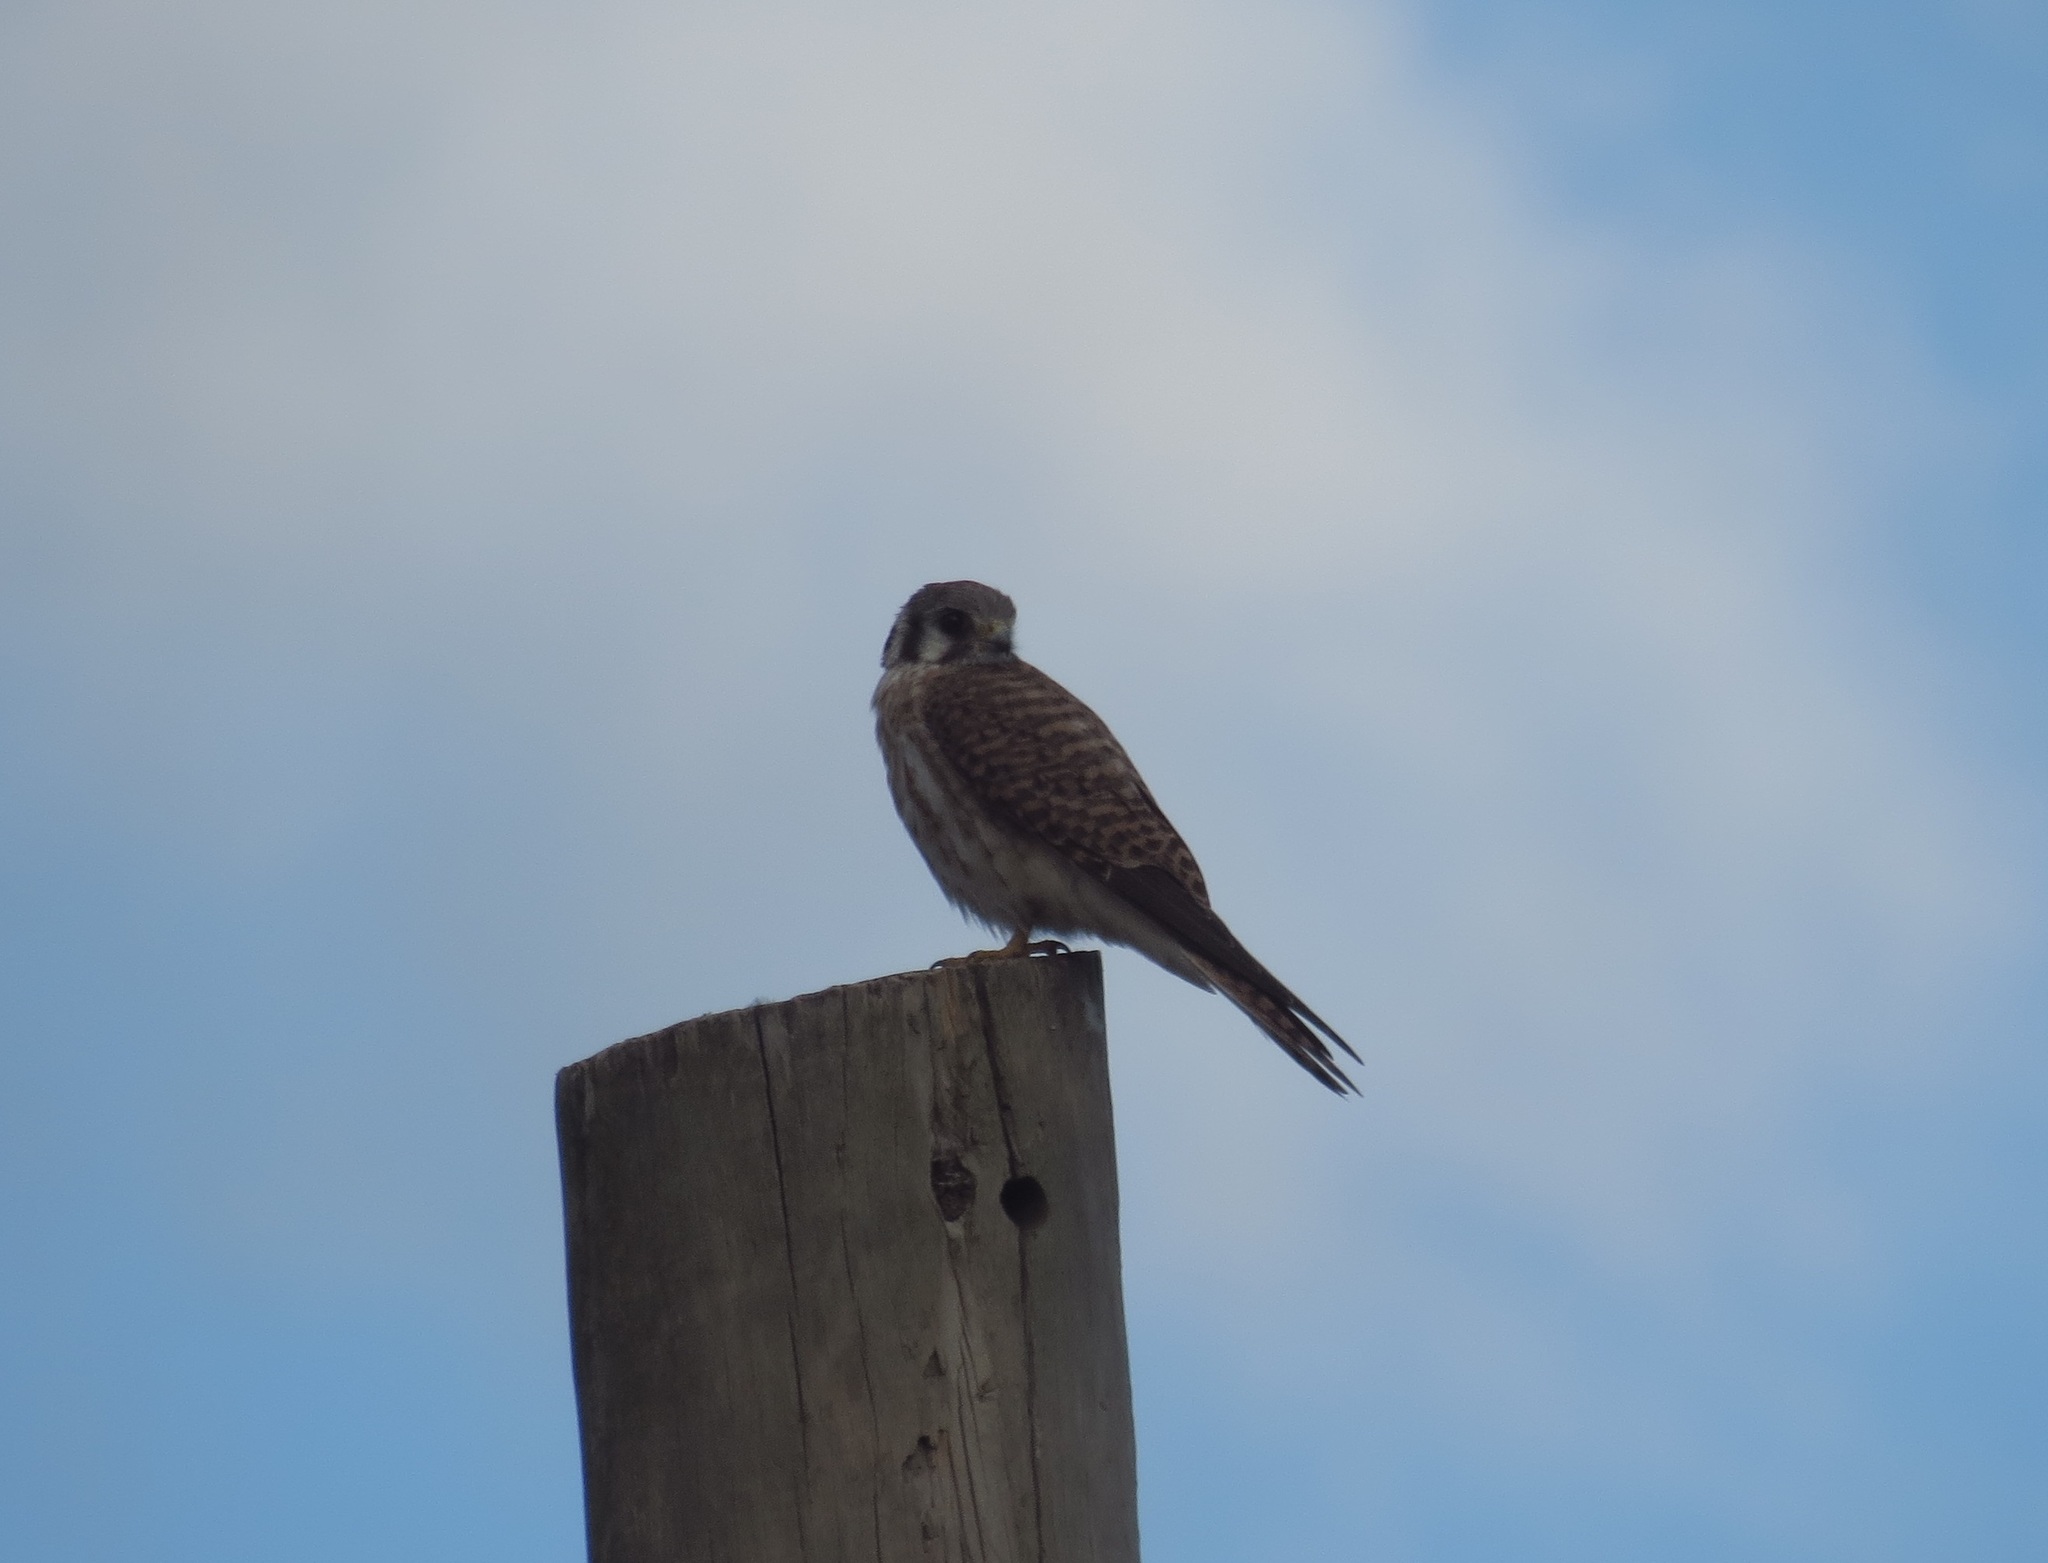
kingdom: Animalia
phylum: Chordata
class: Aves
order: Falconiformes
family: Falconidae
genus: Falco
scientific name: Falco sparverius
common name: American kestrel
